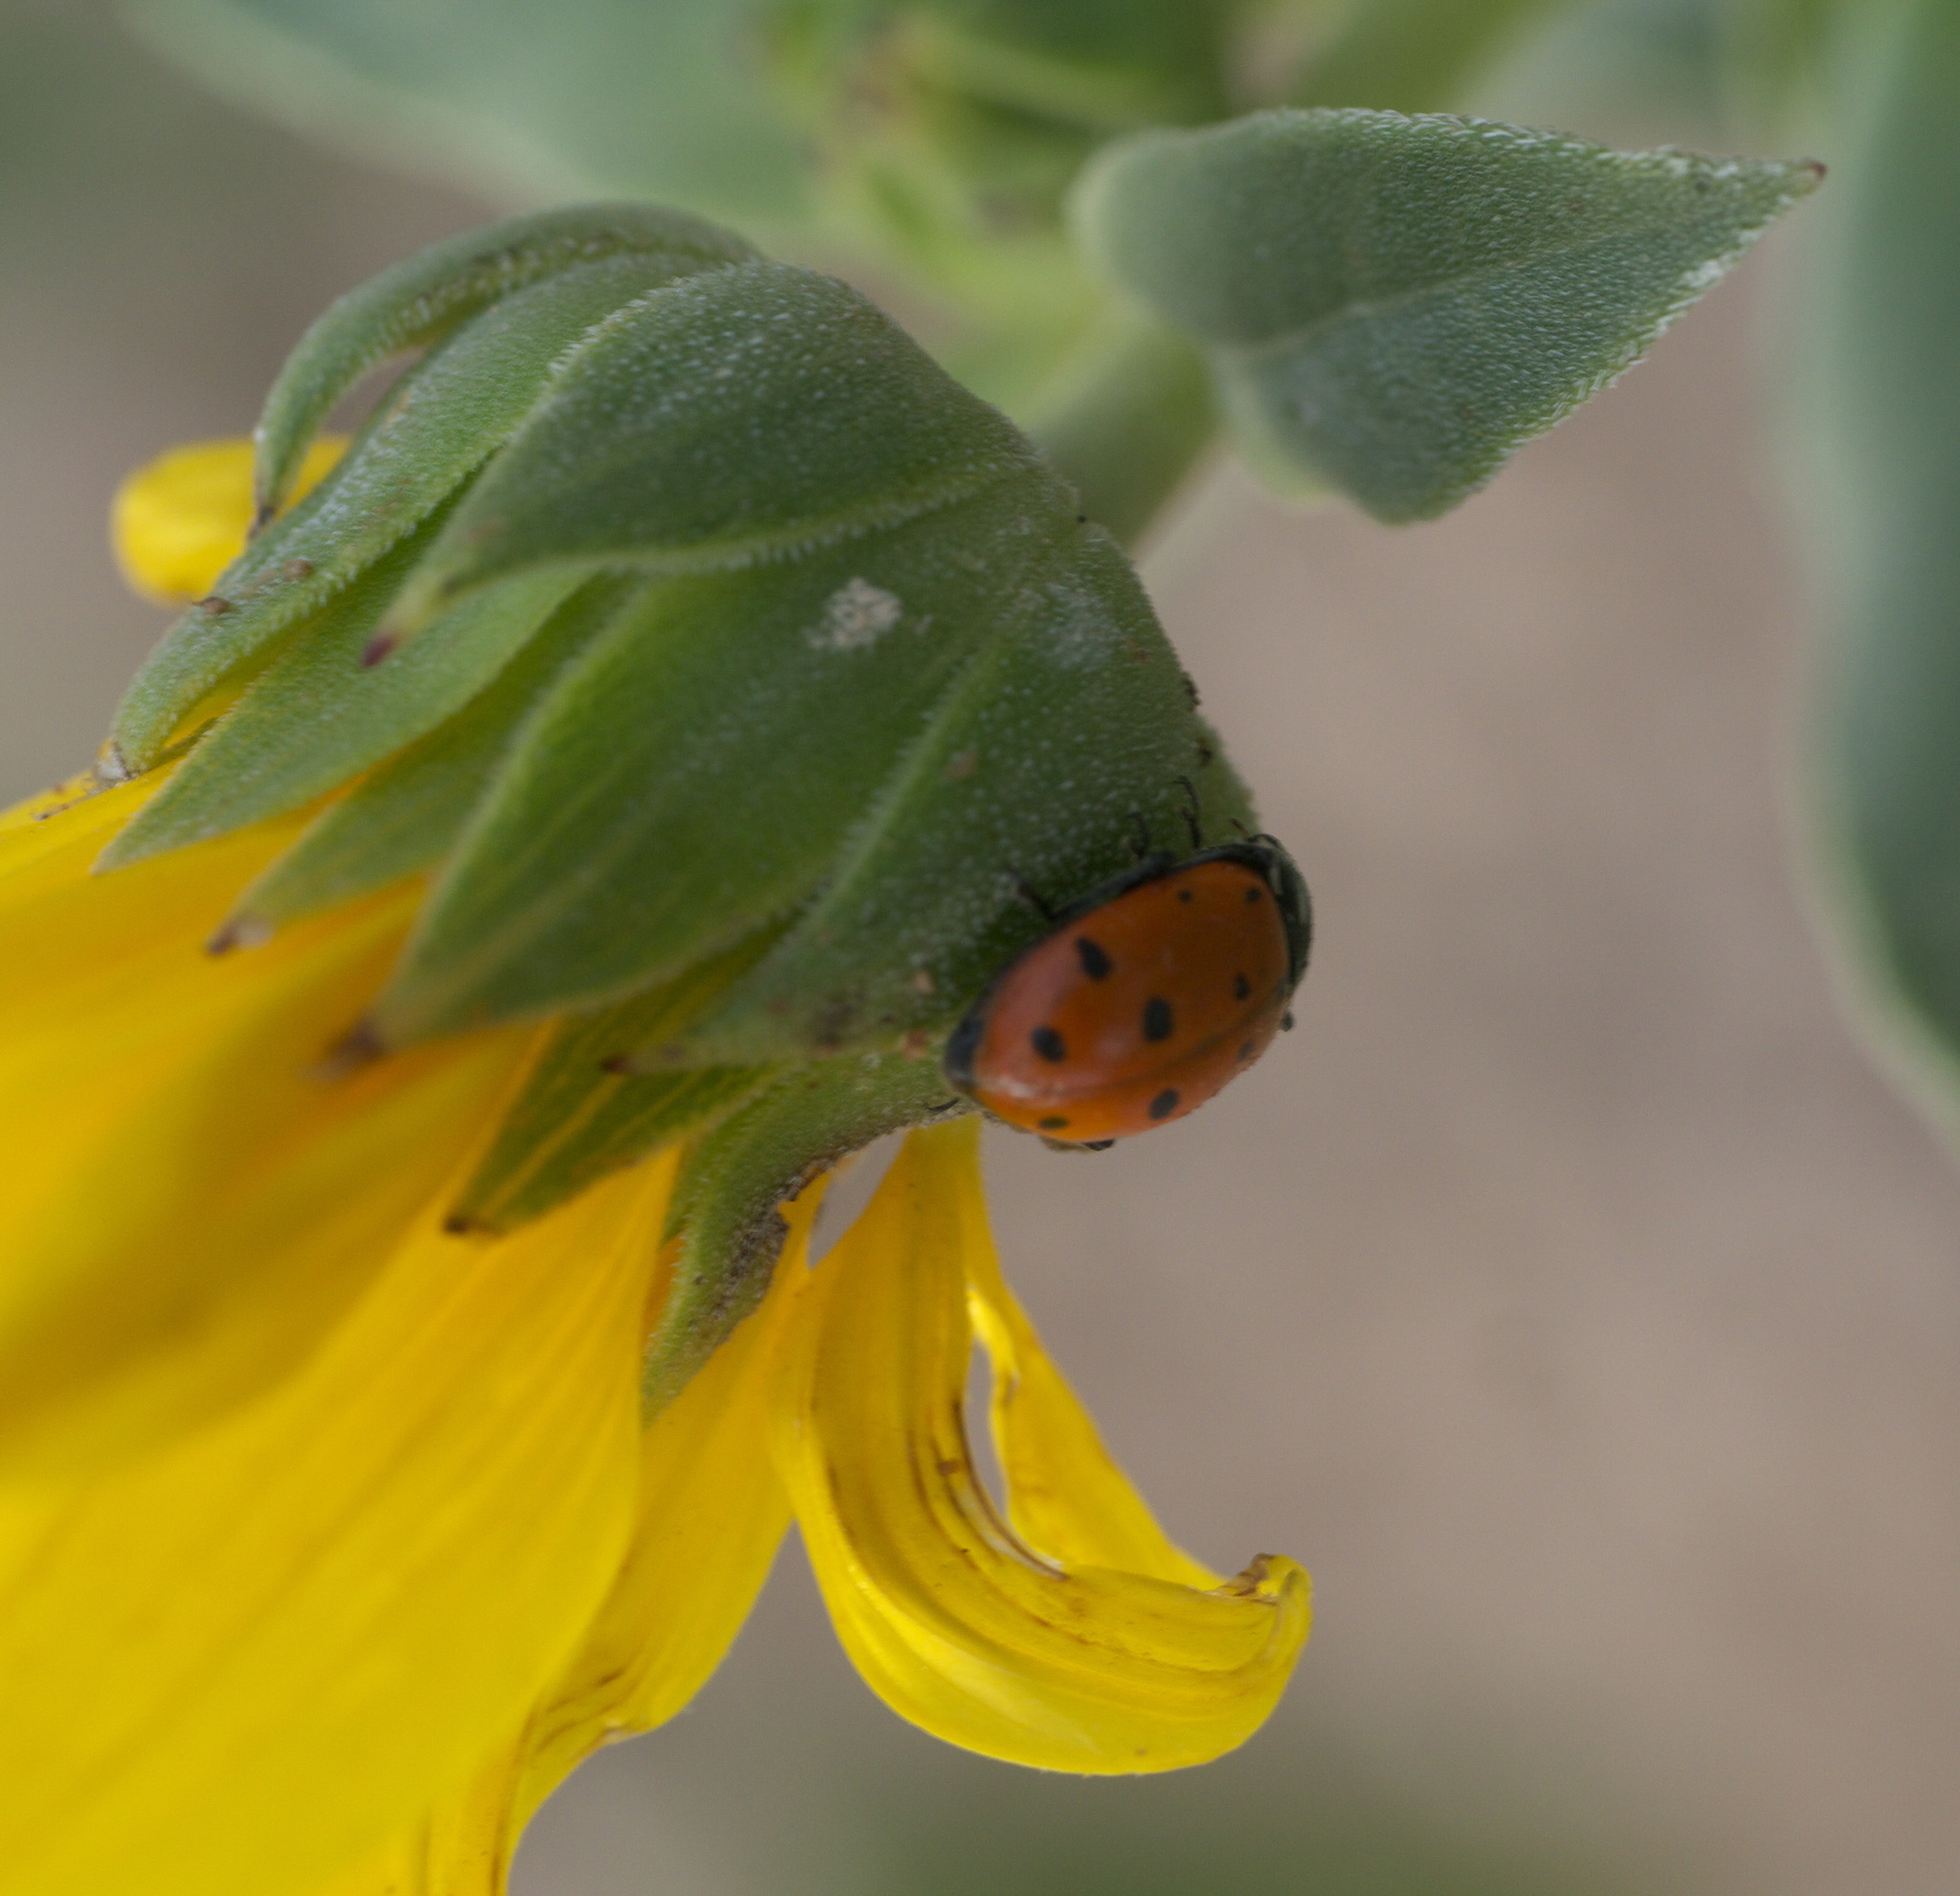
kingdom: Animalia
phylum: Arthropoda
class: Insecta
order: Coleoptera
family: Coccinellidae
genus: Hippodamia
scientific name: Hippodamia convergens
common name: Convergent lady beetle
